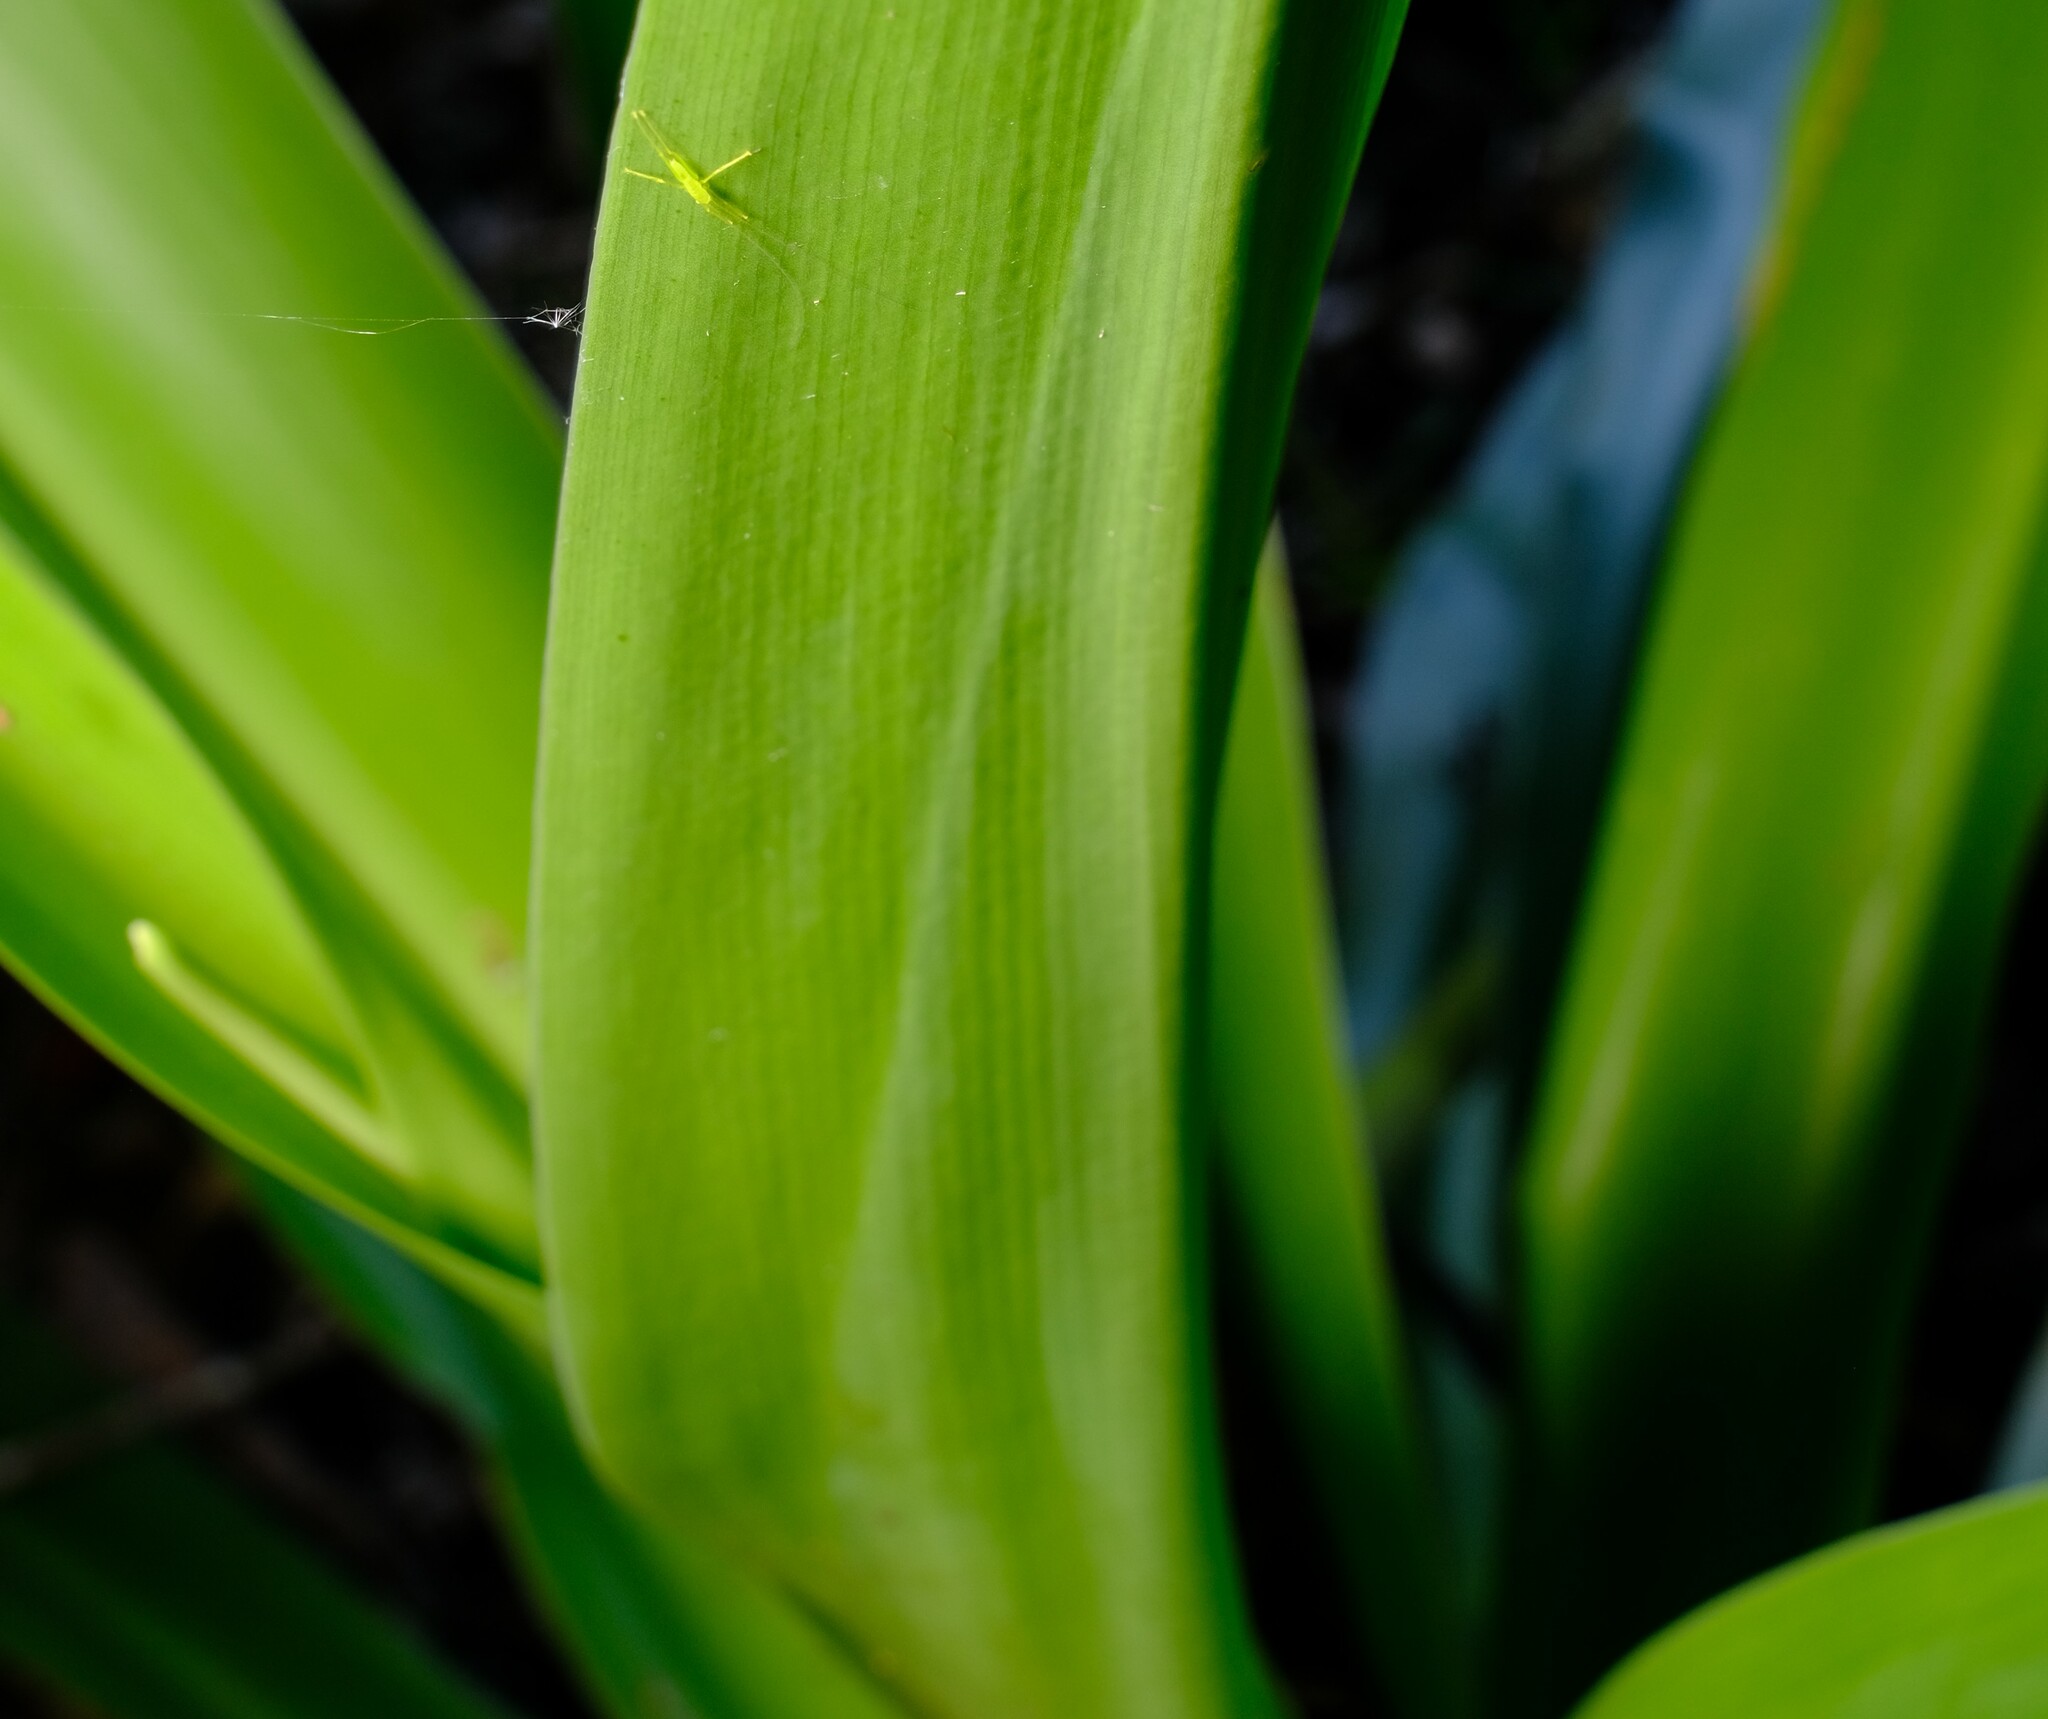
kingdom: Plantae
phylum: Tracheophyta
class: Liliopsida
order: Asparagales
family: Amaryllidaceae
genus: Crinum
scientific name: Crinum pedunculatum
